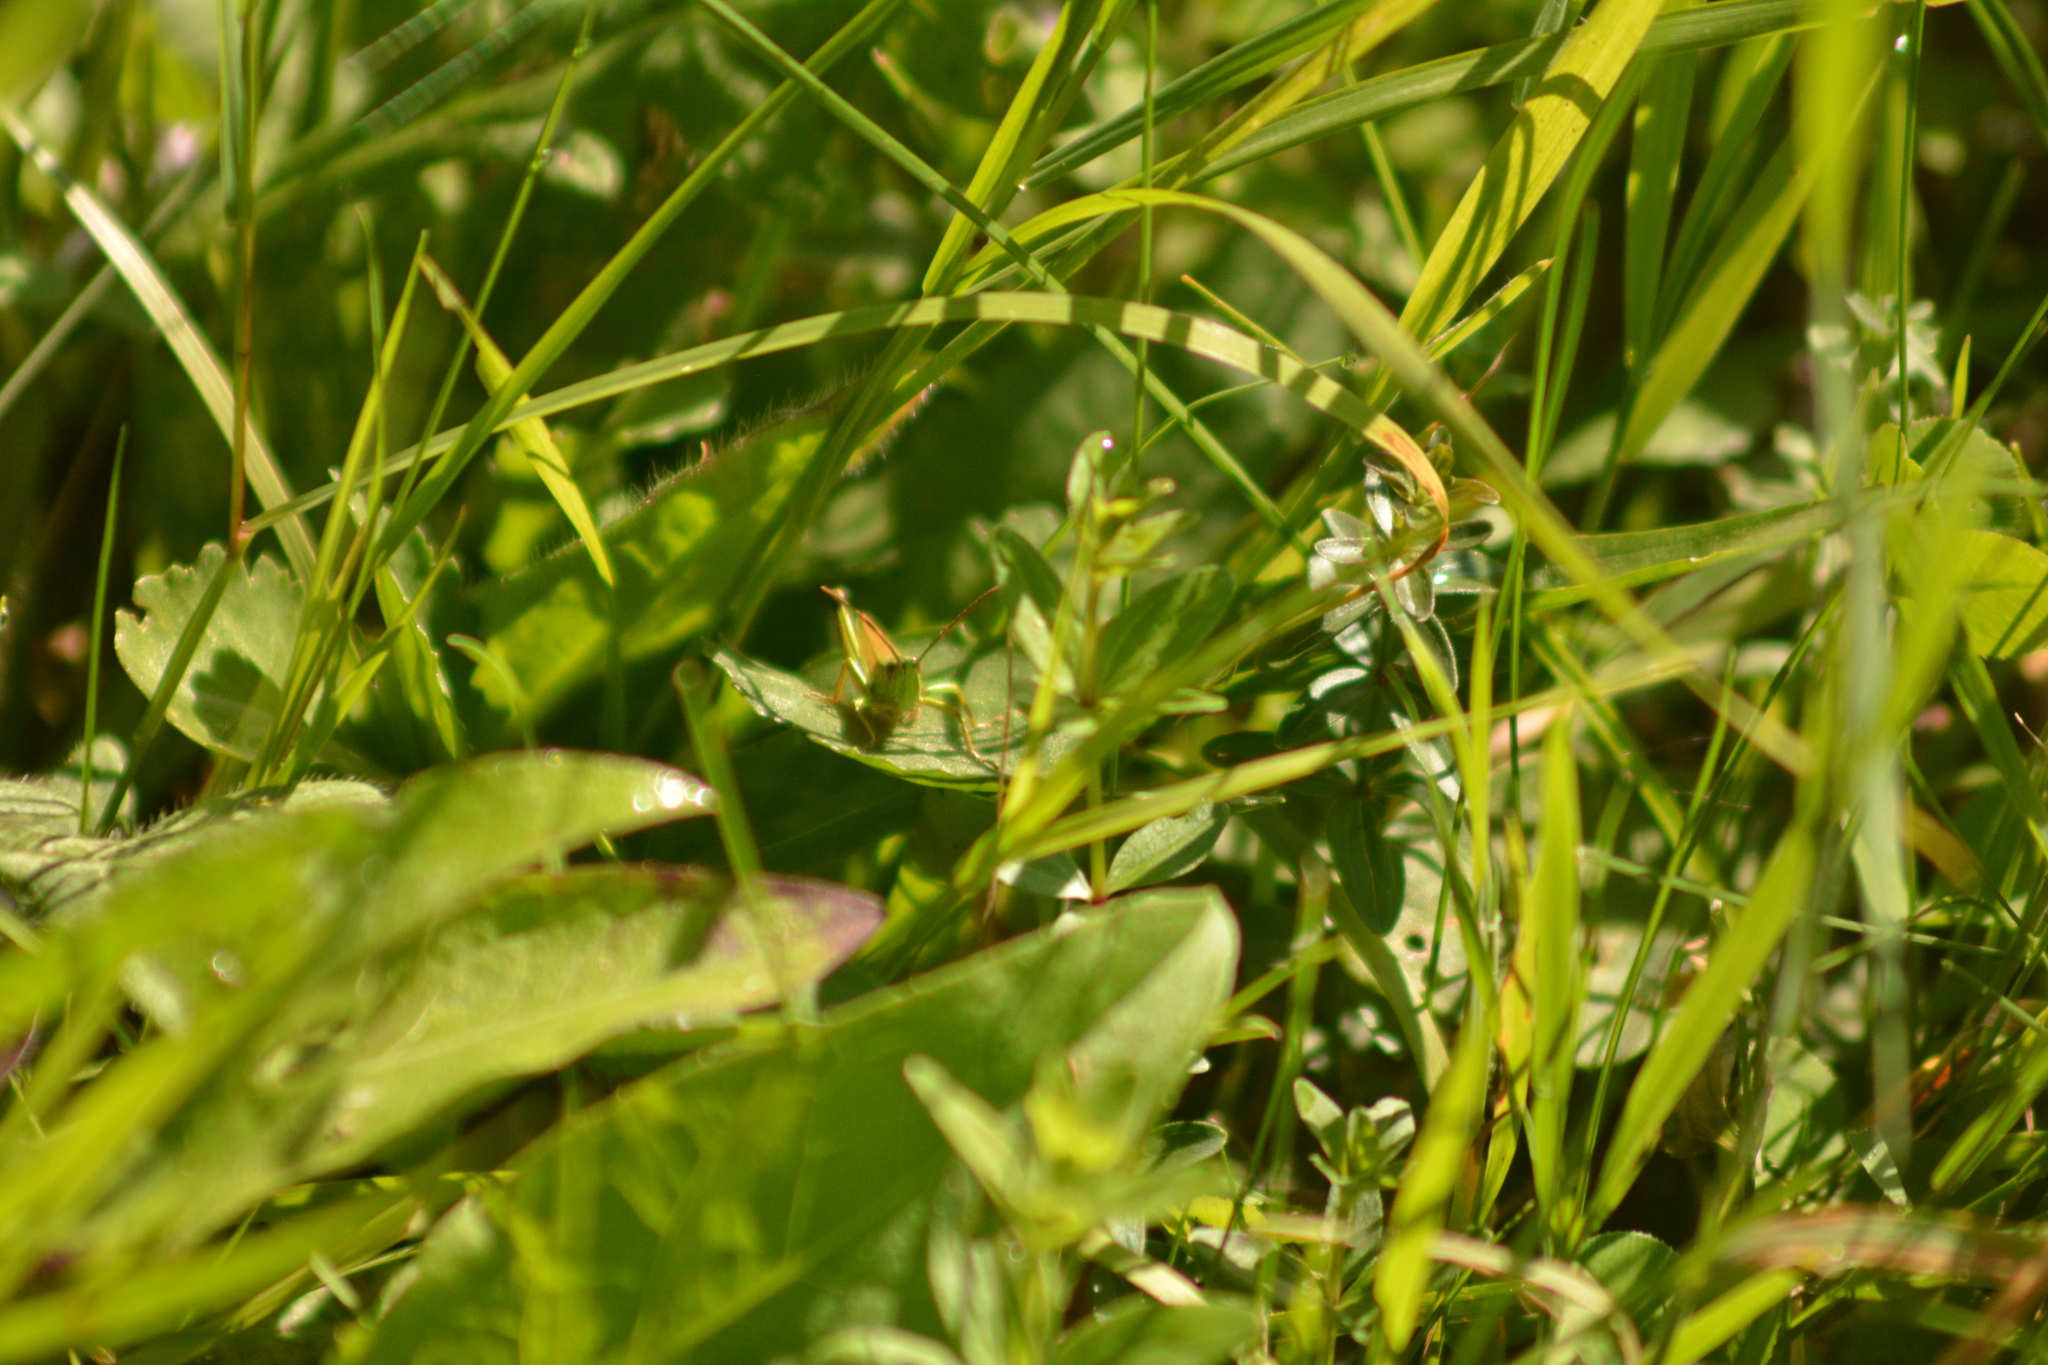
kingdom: Animalia
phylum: Arthropoda
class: Insecta
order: Orthoptera
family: Acrididae
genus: Chrysochraon
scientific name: Chrysochraon dispar
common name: Large gold grasshopper
